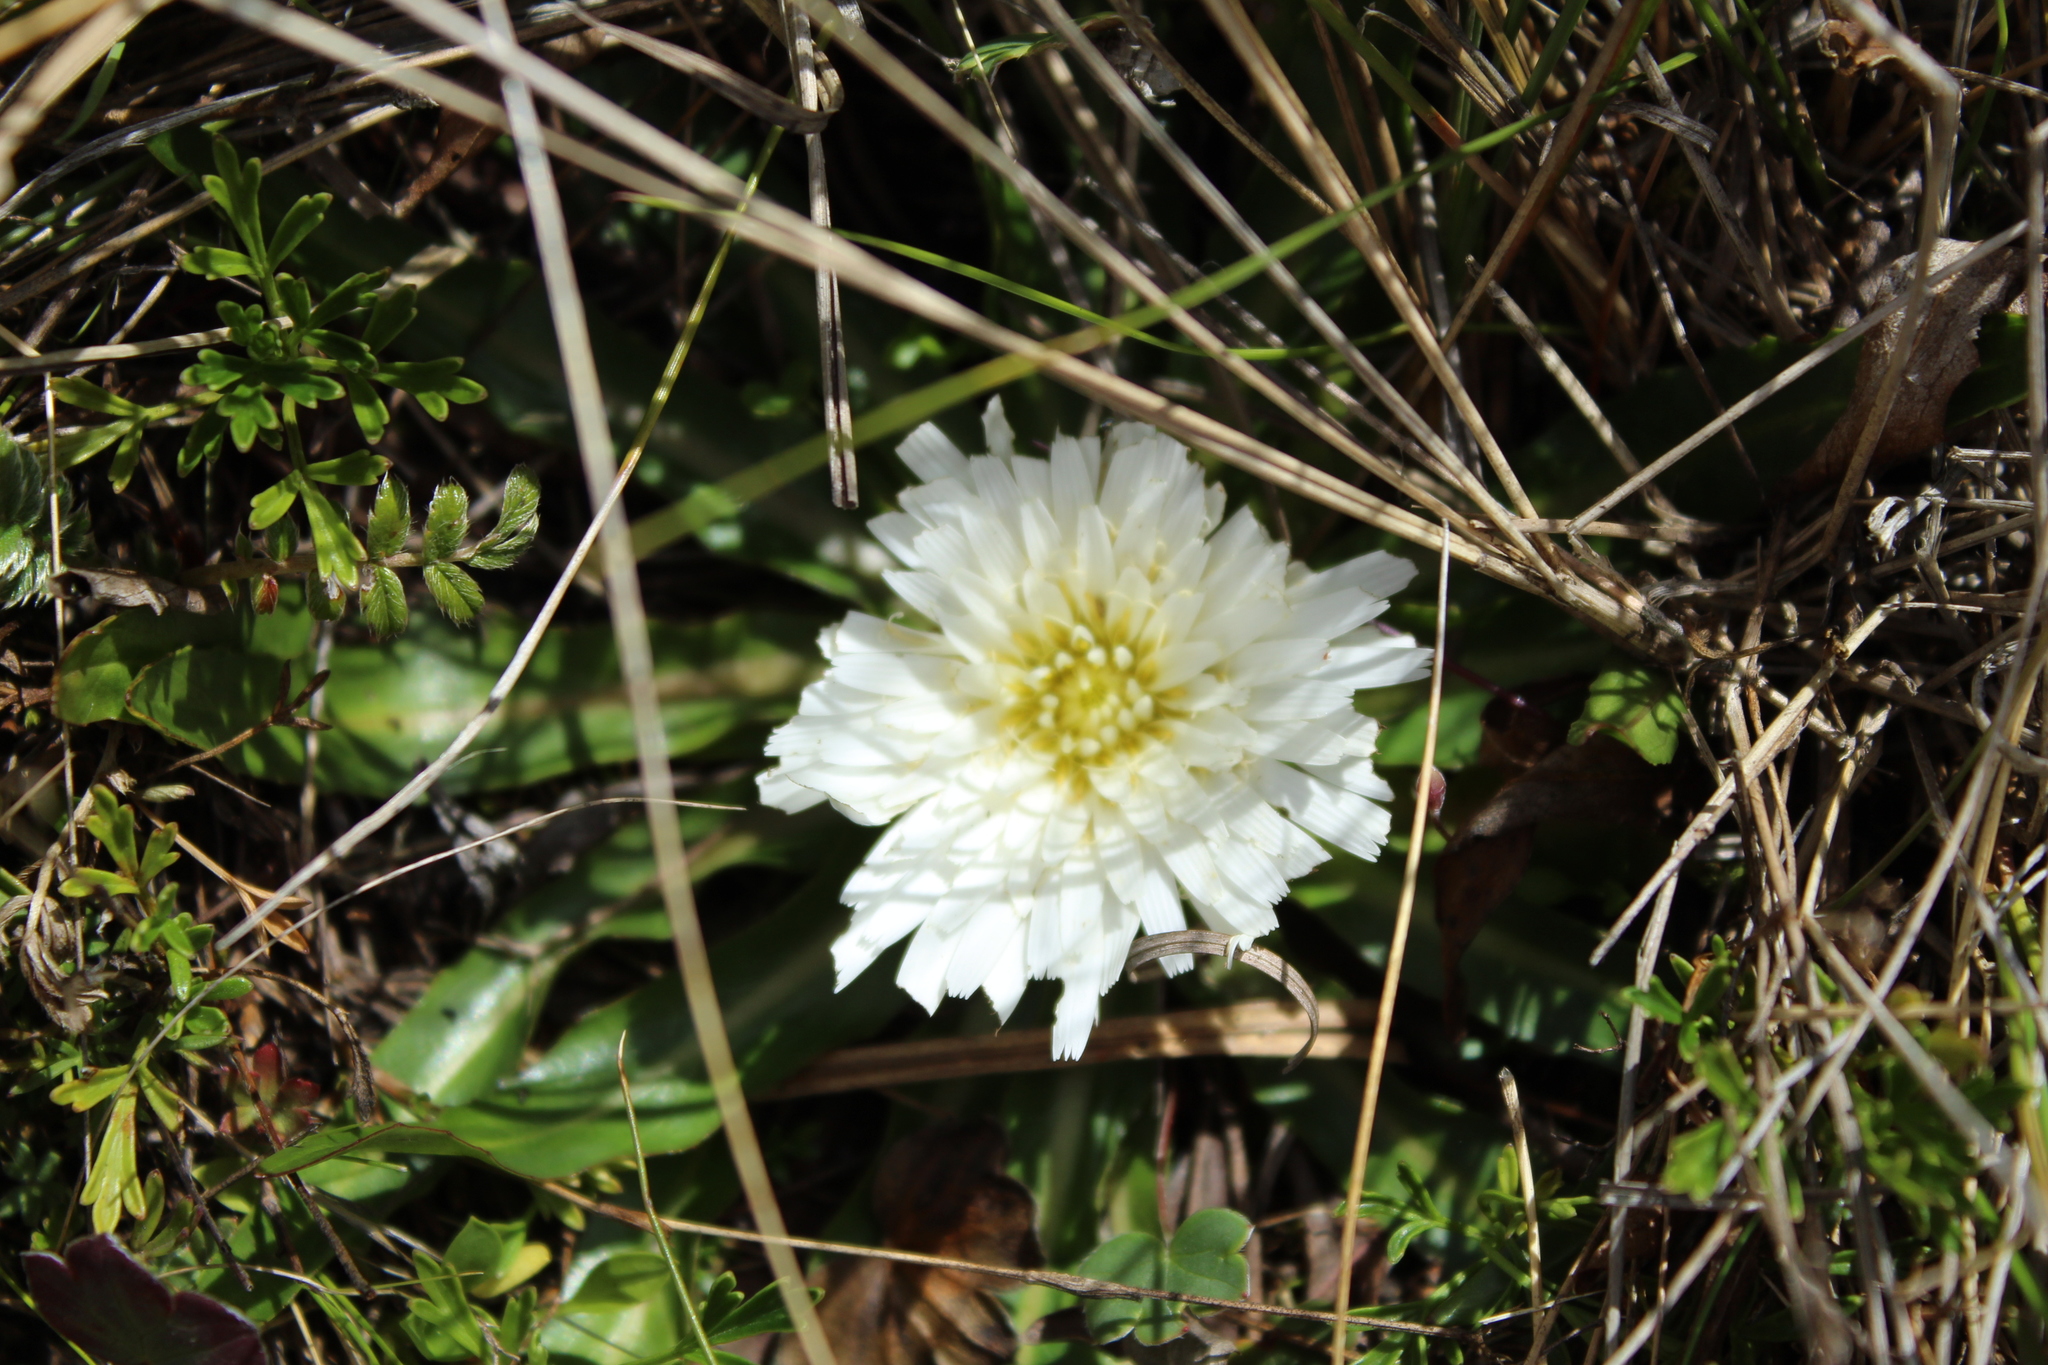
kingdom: Plantae
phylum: Tracheophyta
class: Magnoliopsida
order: Asterales
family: Asteraceae
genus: Hypochaeris
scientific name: Hypochaeris sessiliflora
